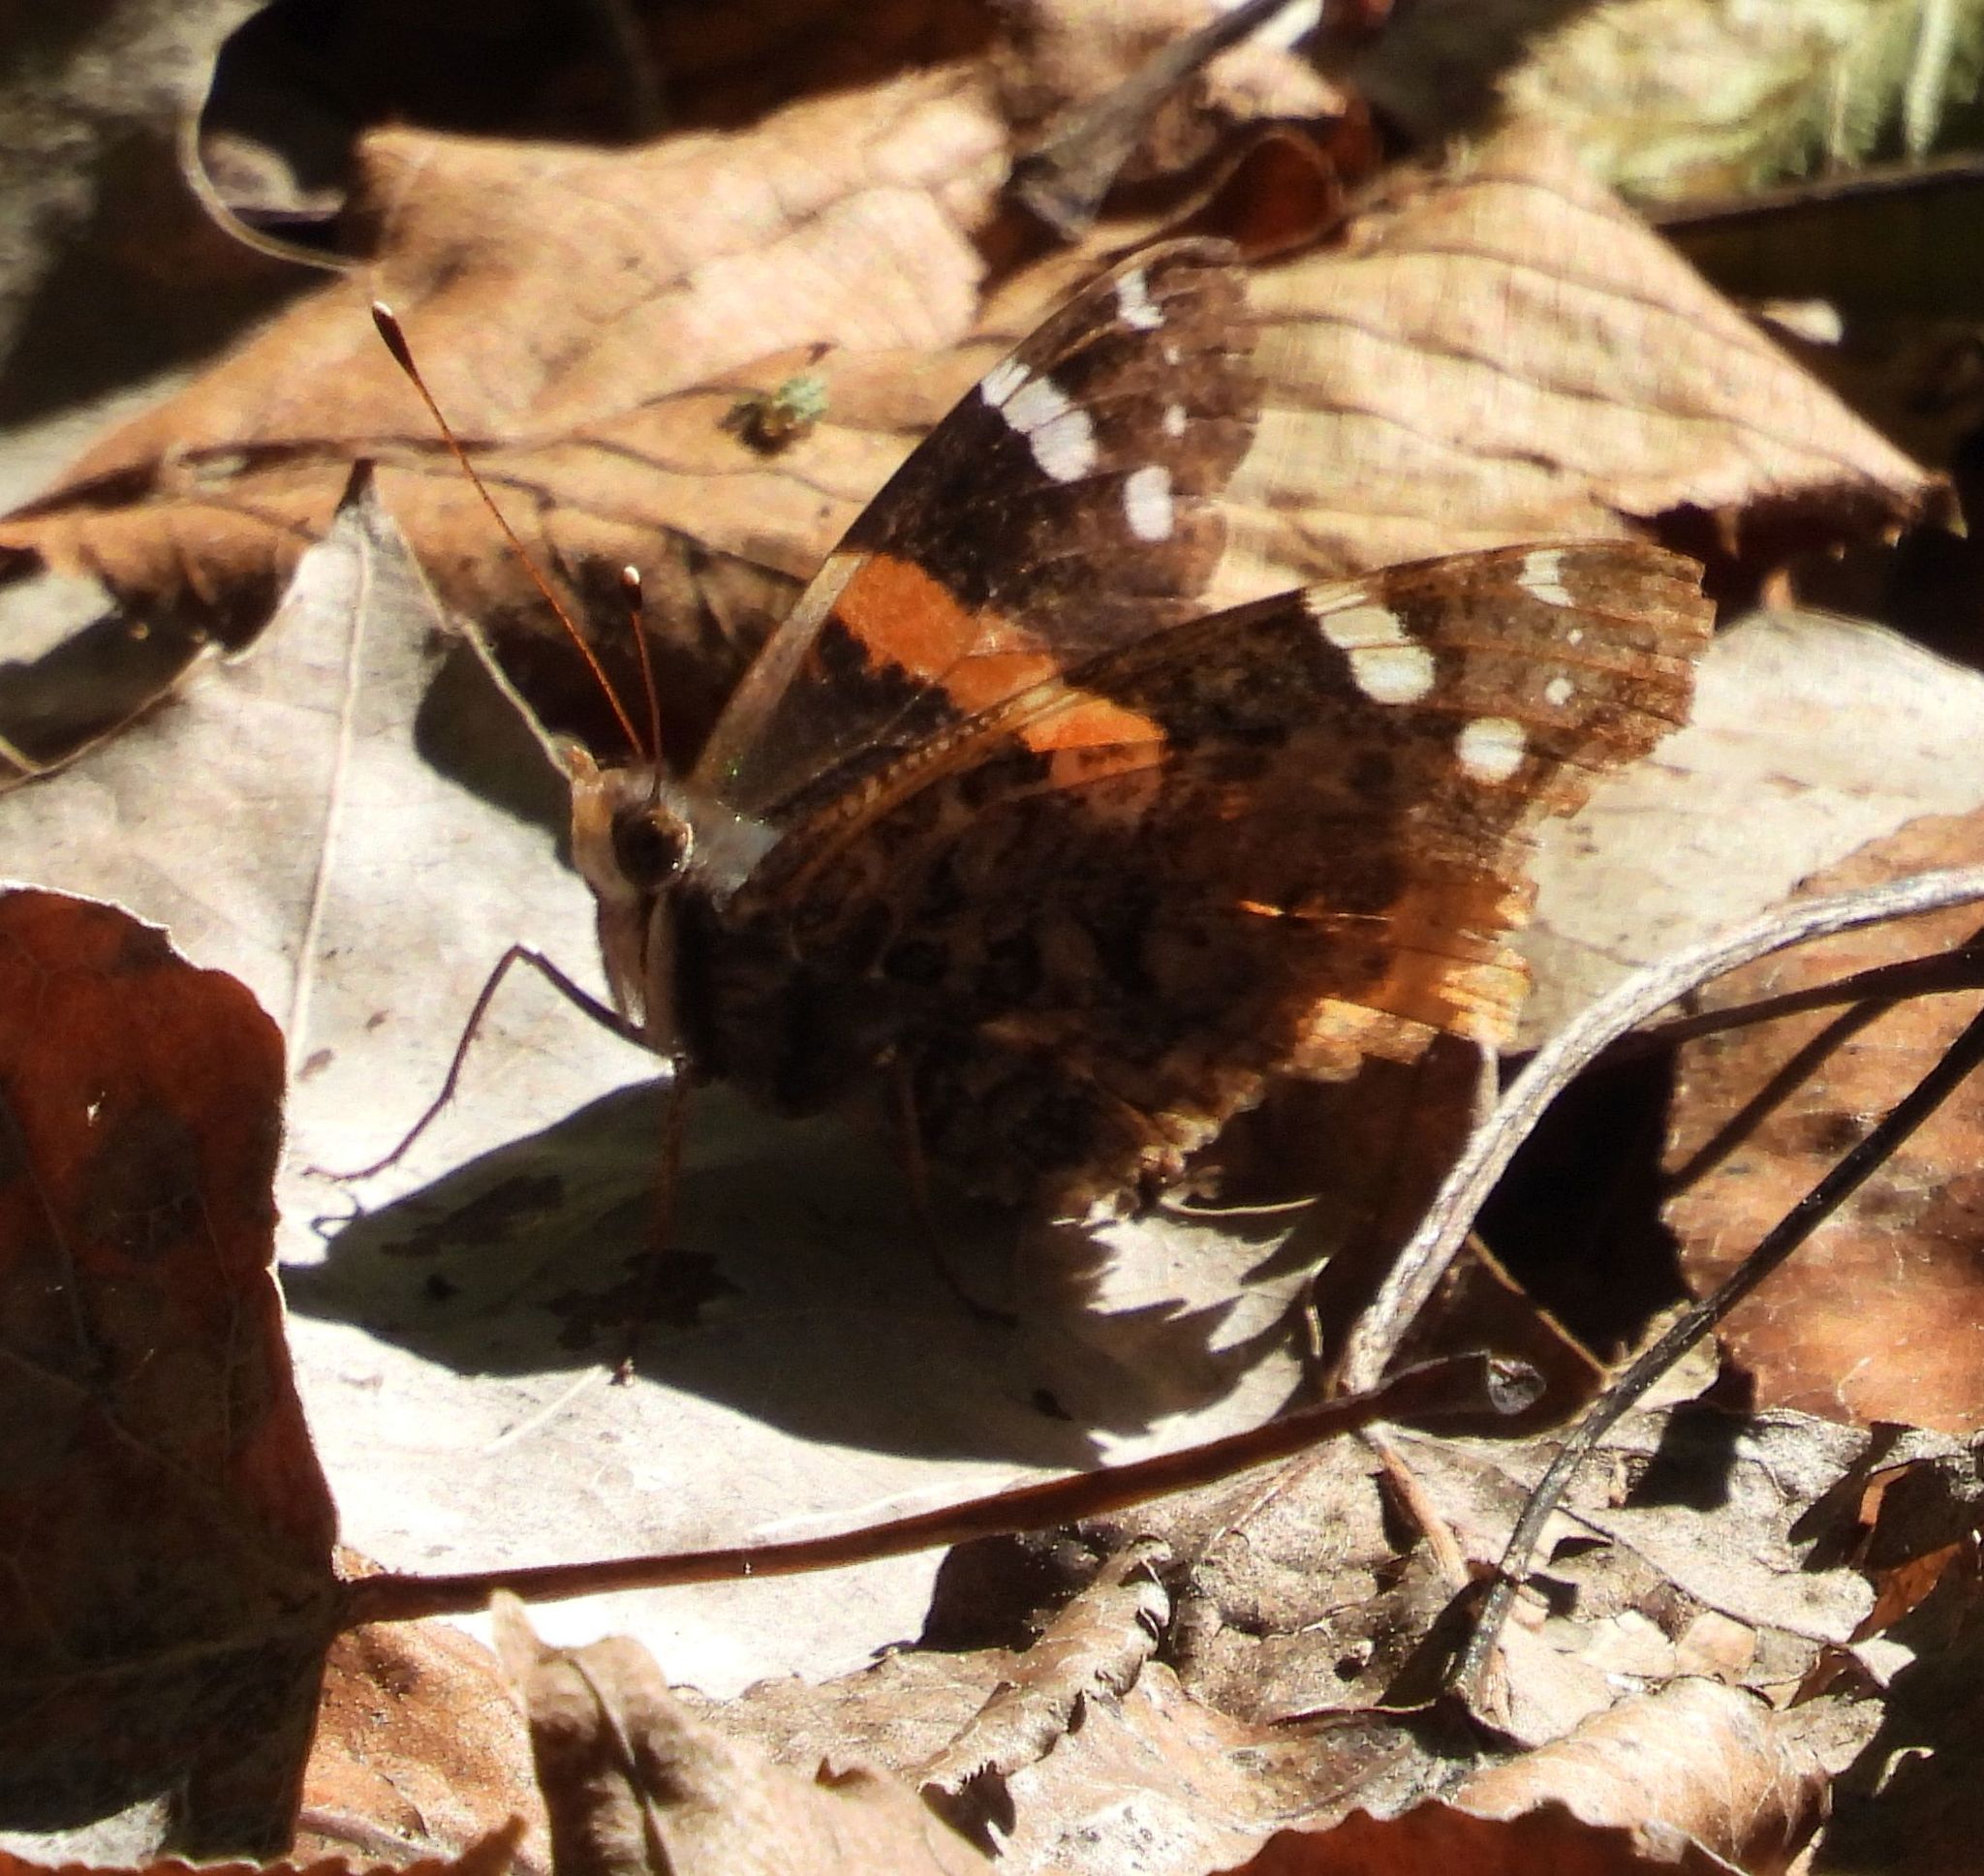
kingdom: Animalia
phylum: Arthropoda
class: Insecta
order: Lepidoptera
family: Nymphalidae
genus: Vanessa
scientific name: Vanessa atalanta
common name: Red admiral
